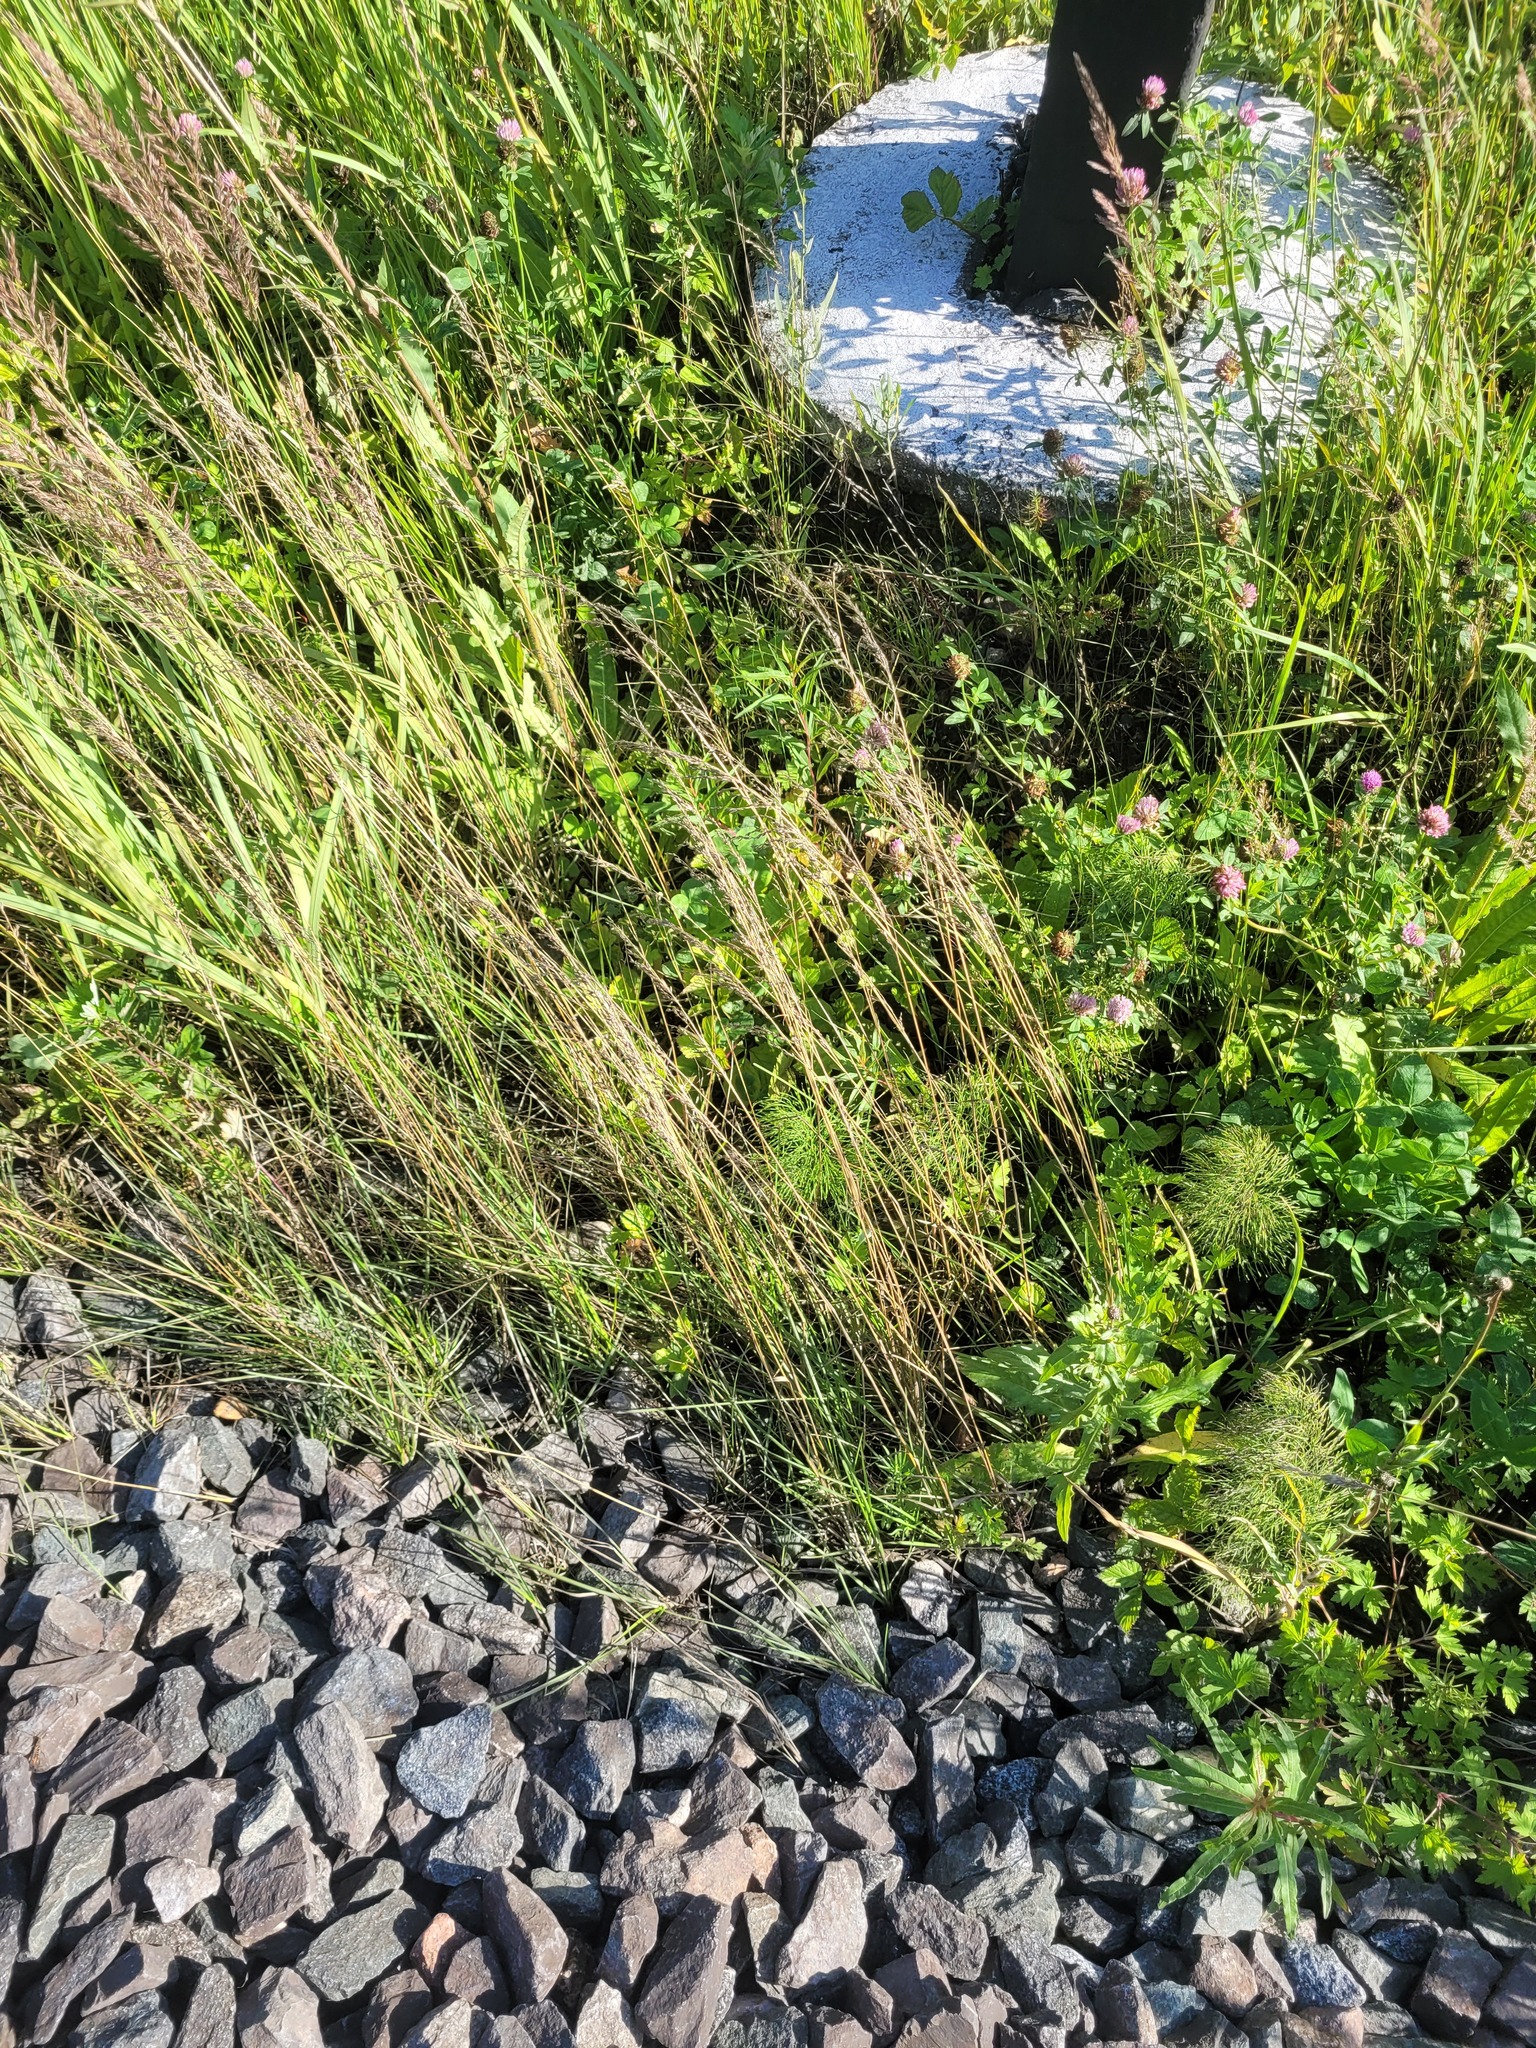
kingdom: Plantae
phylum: Tracheophyta
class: Liliopsida
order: Poales
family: Poaceae
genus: Poa
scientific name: Poa angustifolia
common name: Narrow-leaved meadow-grass
